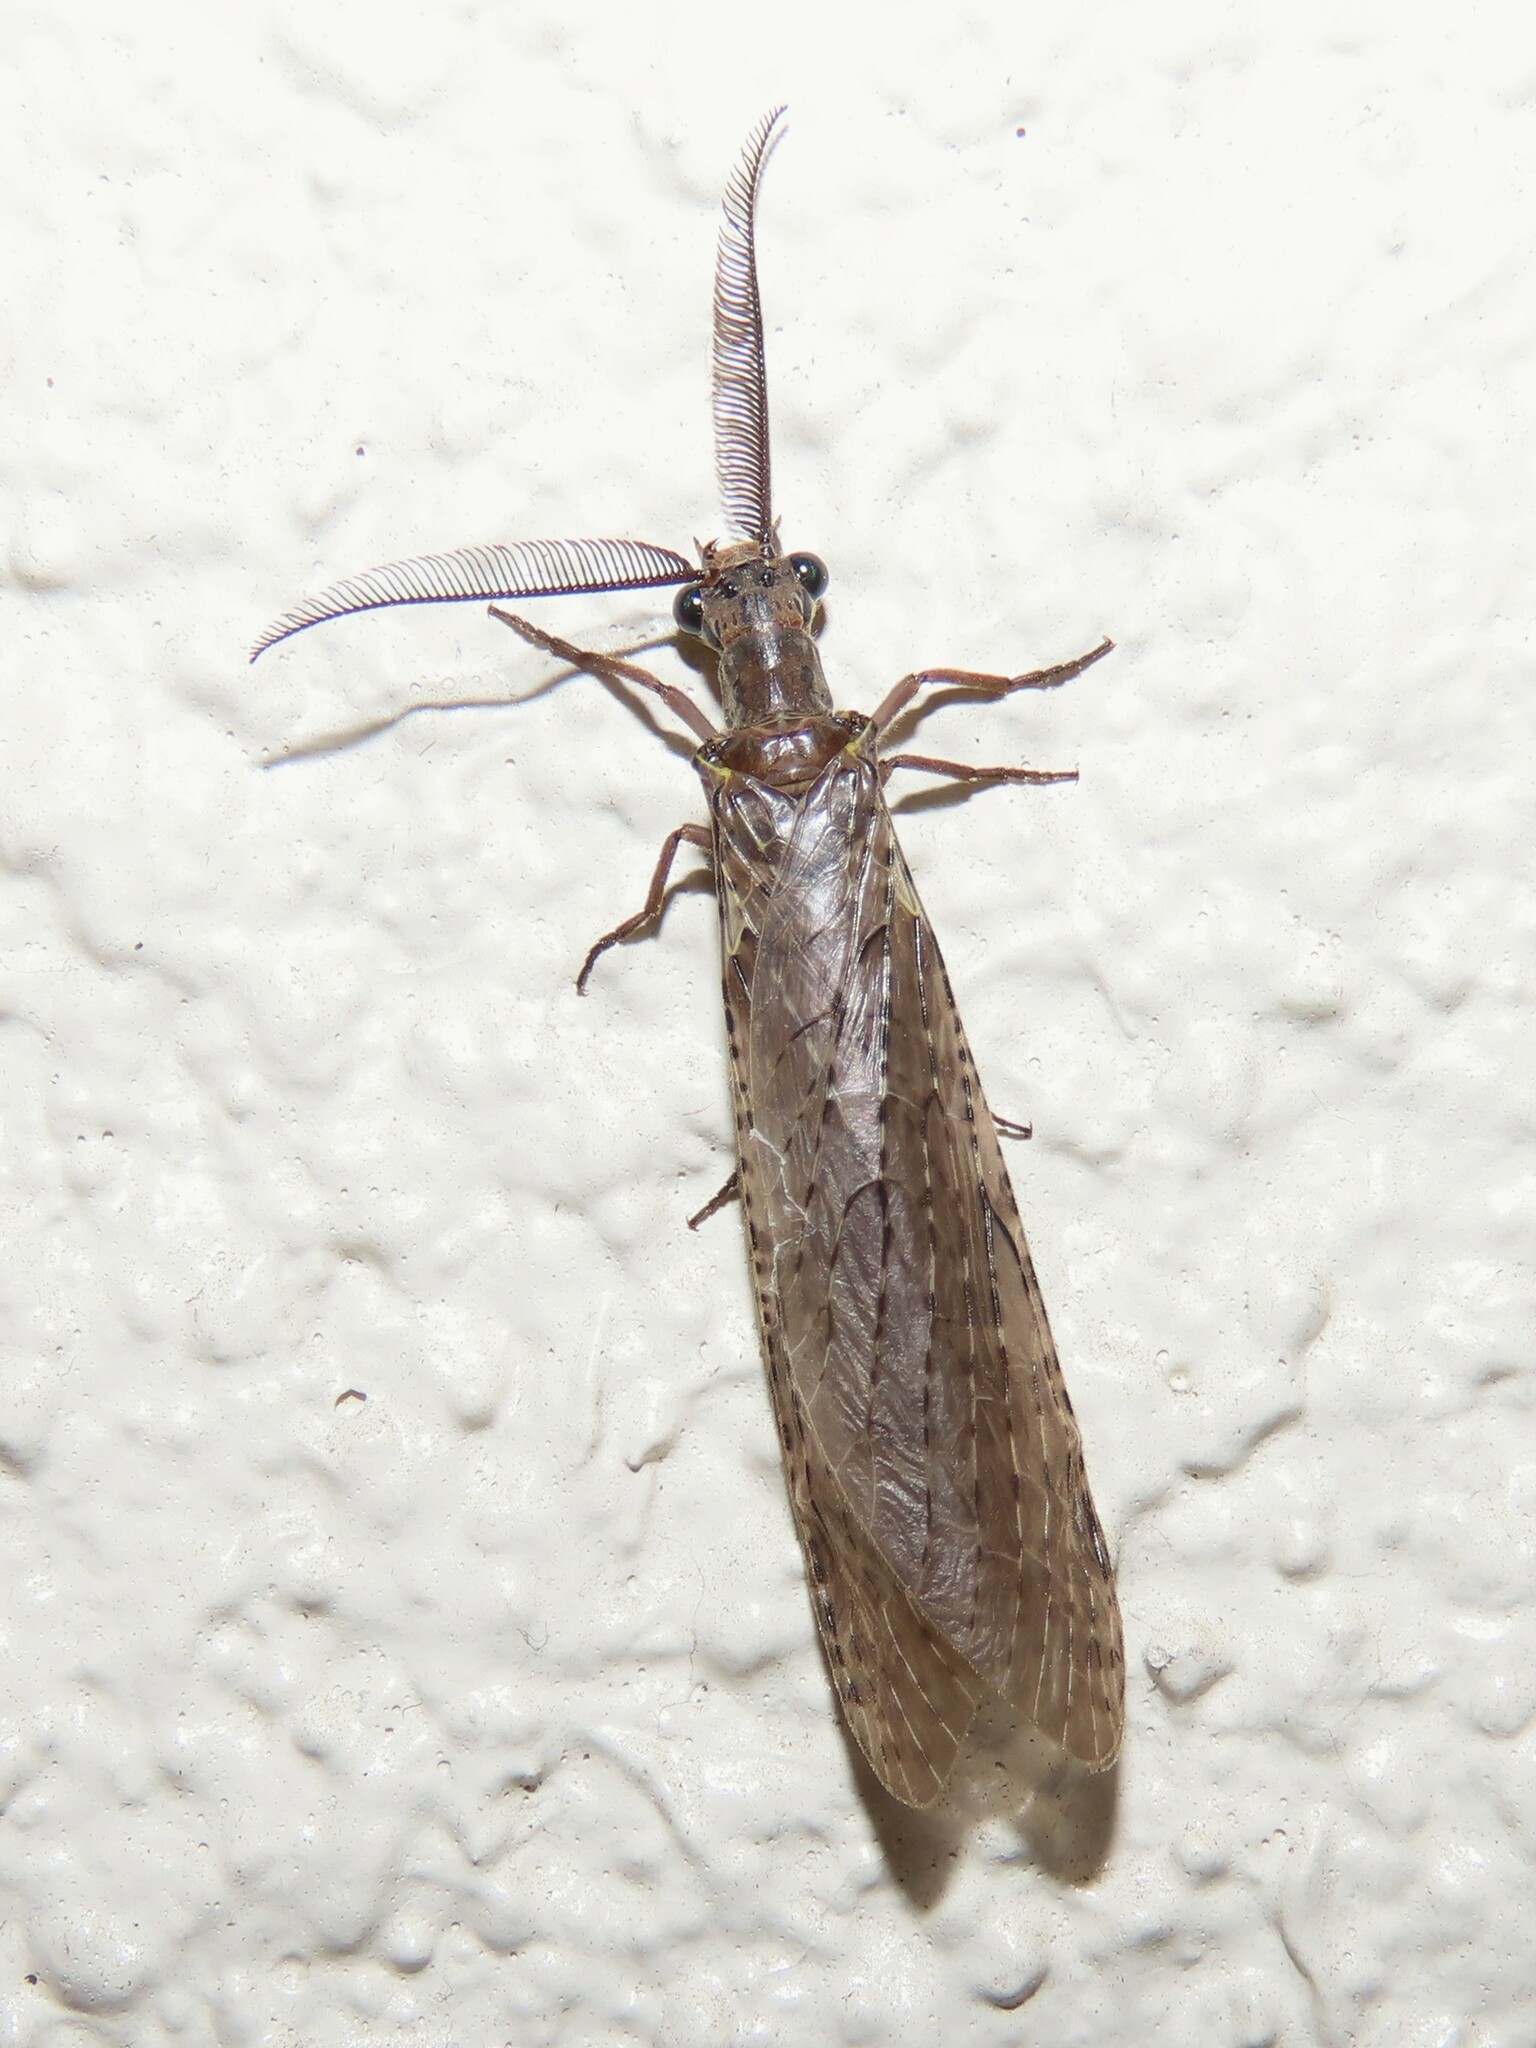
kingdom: Animalia
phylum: Arthropoda
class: Insecta
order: Megaloptera
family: Corydalidae
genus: Chauliodes
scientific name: Chauliodes rastricornis
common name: Spring fishfly
